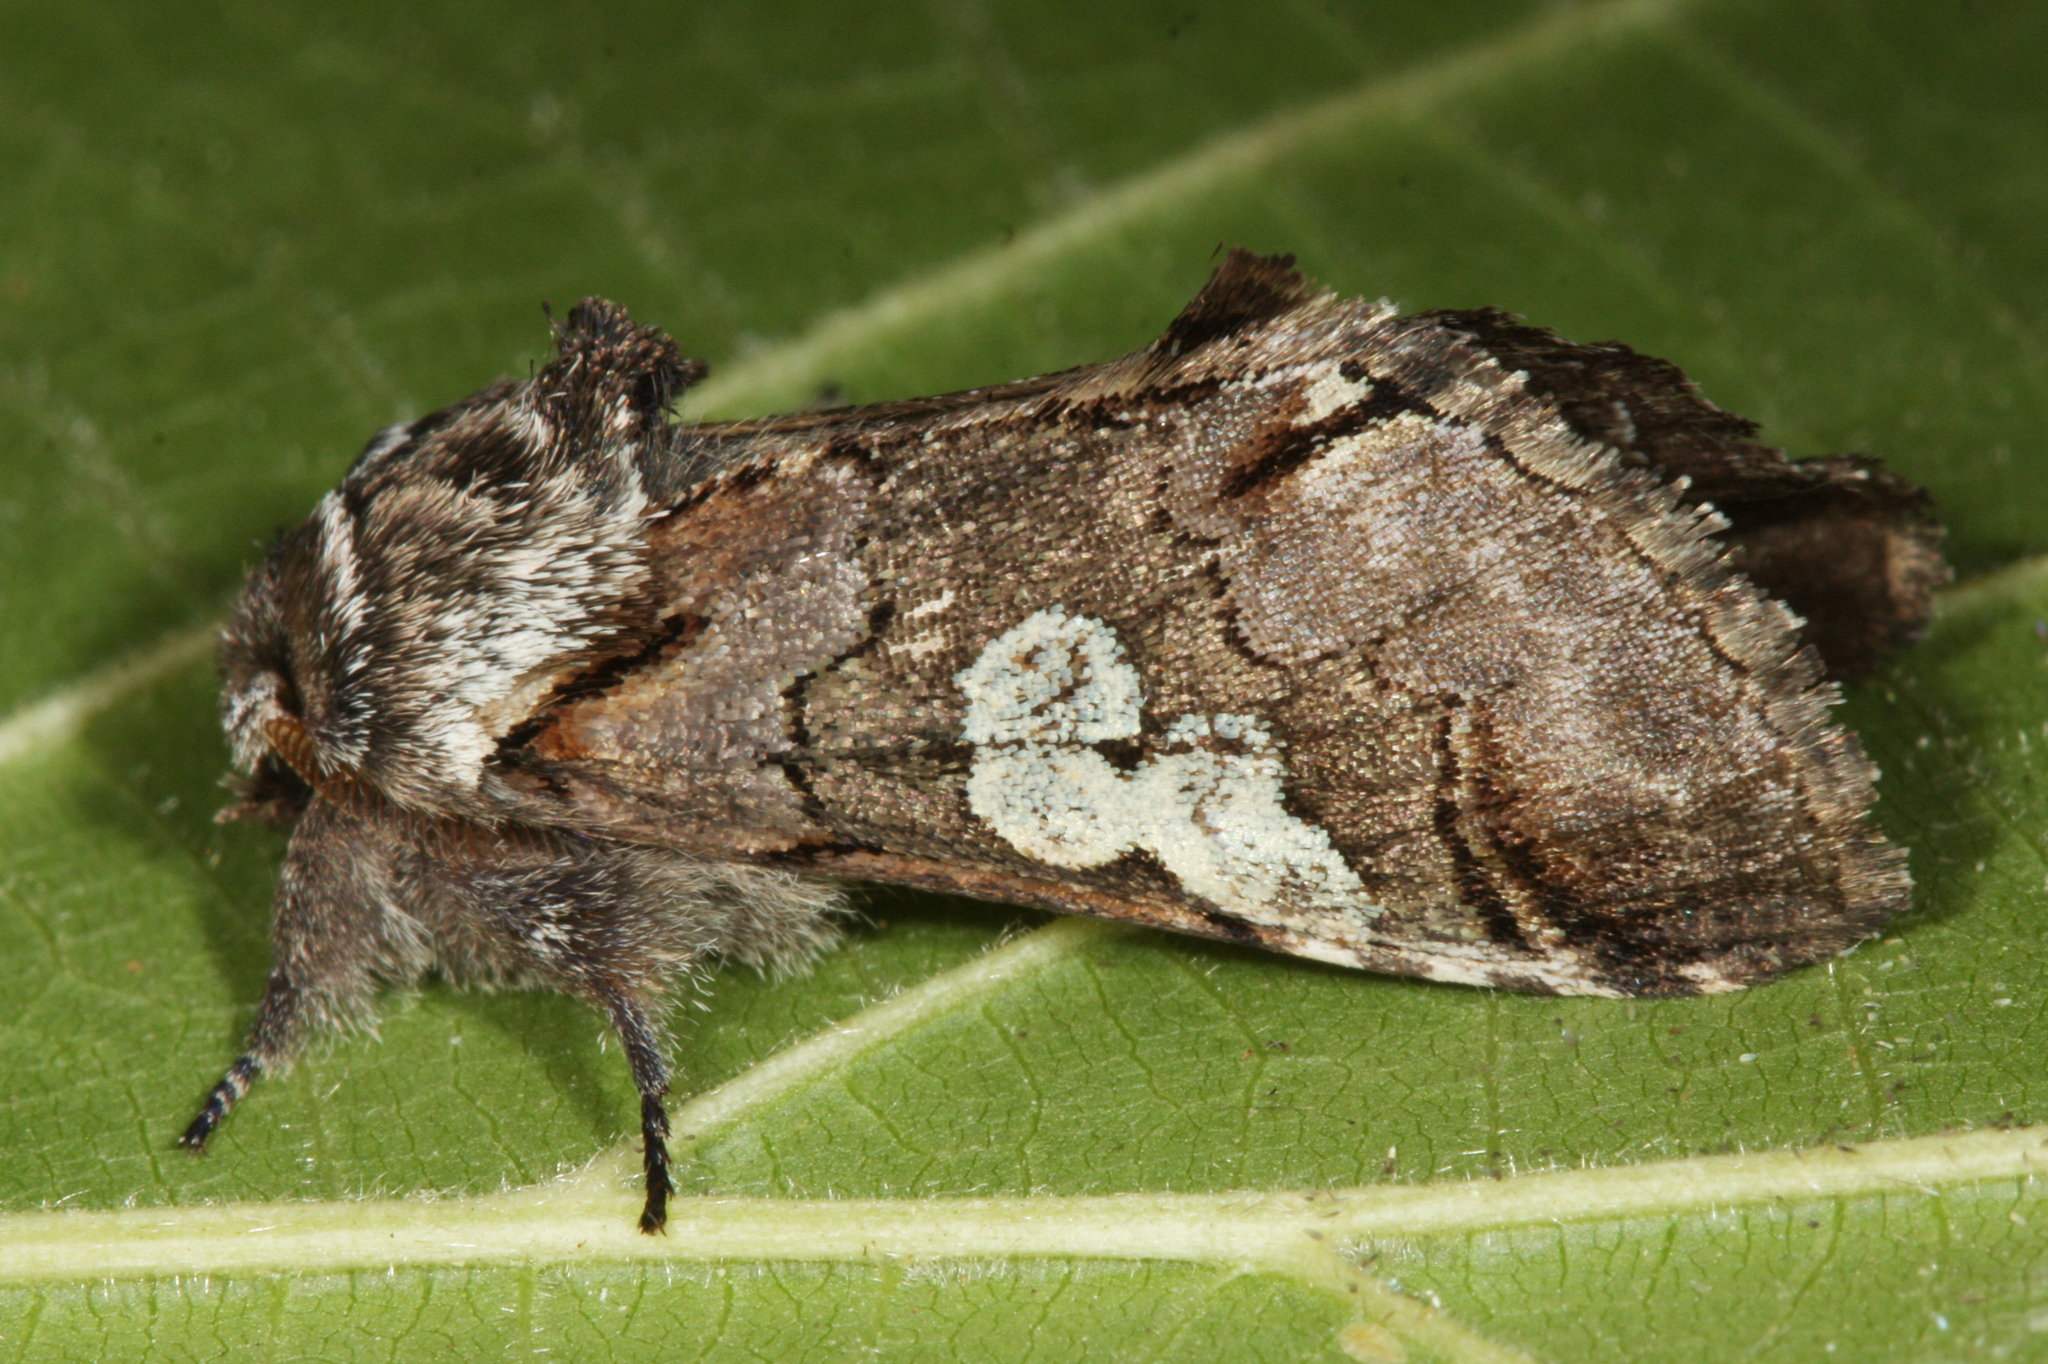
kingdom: Animalia
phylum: Arthropoda
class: Insecta
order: Lepidoptera
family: Noctuidae
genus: Diloba
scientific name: Diloba caeruleocephala
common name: Figure of eight
